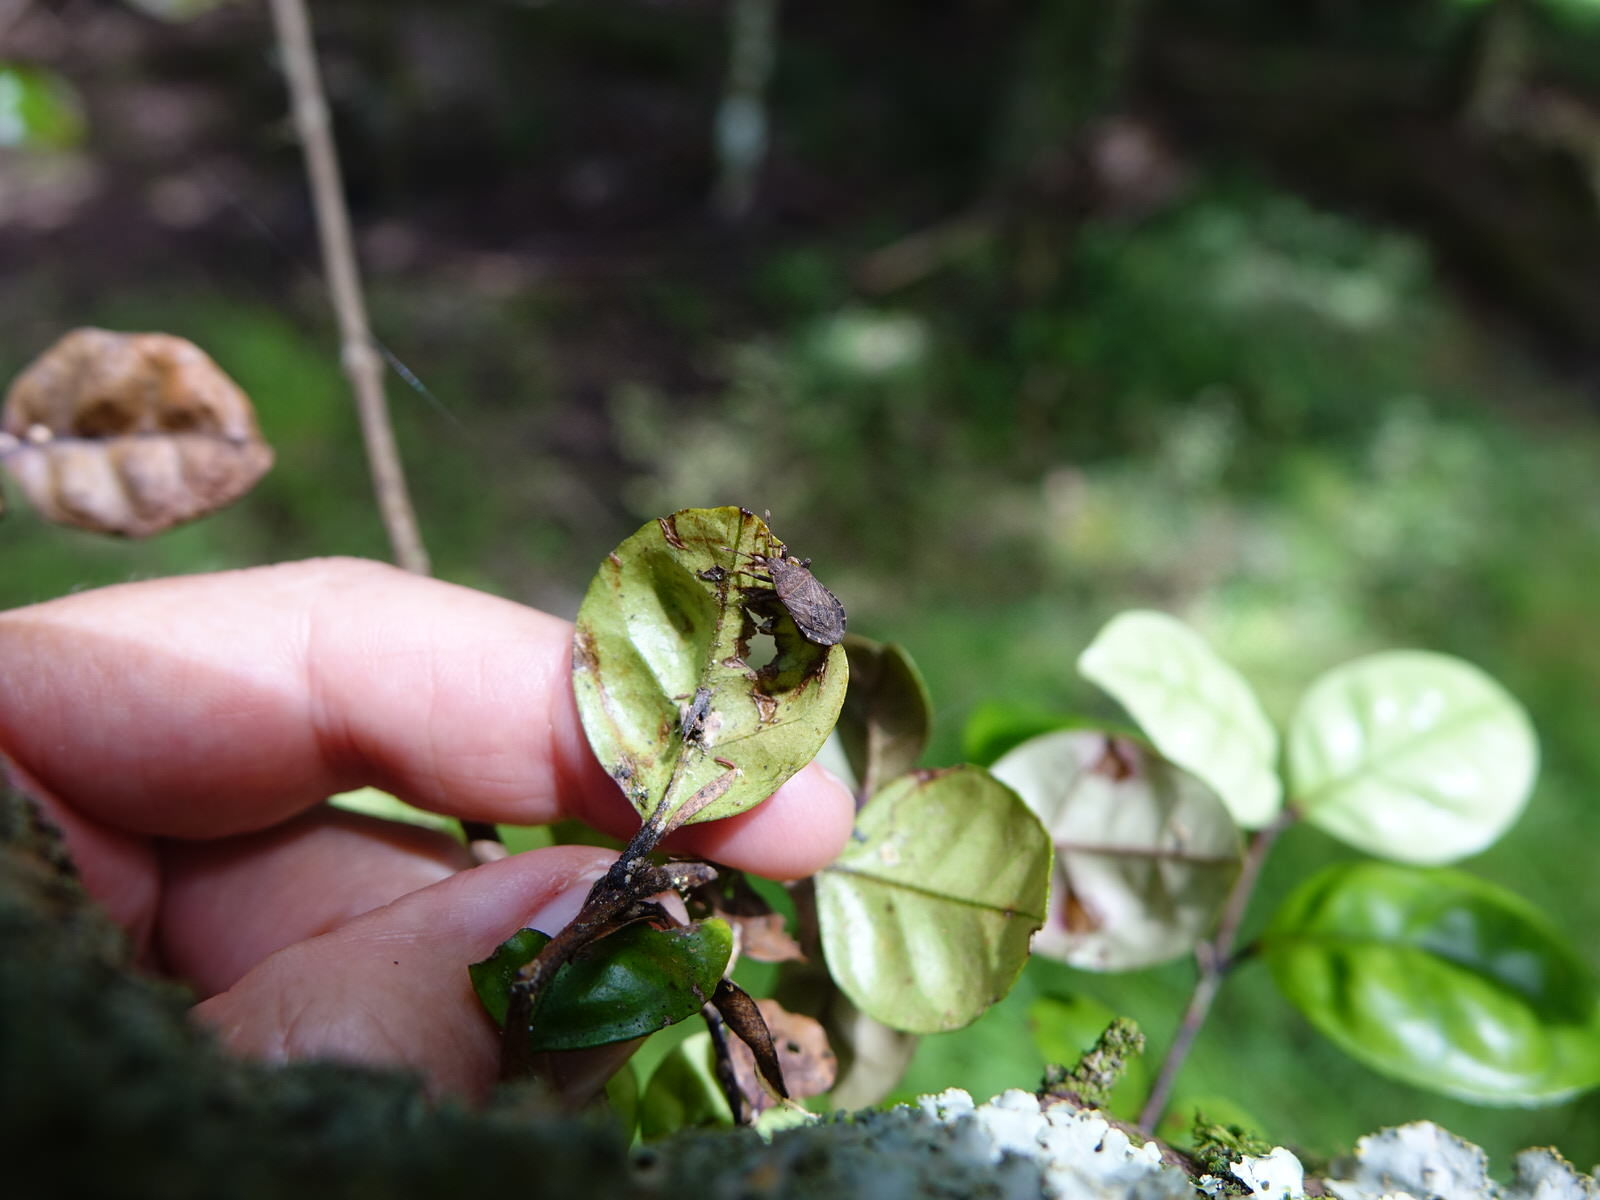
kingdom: Animalia
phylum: Arthropoda
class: Insecta
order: Hemiptera
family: Coreidae
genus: Acantholybas
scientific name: Acantholybas brunneus
